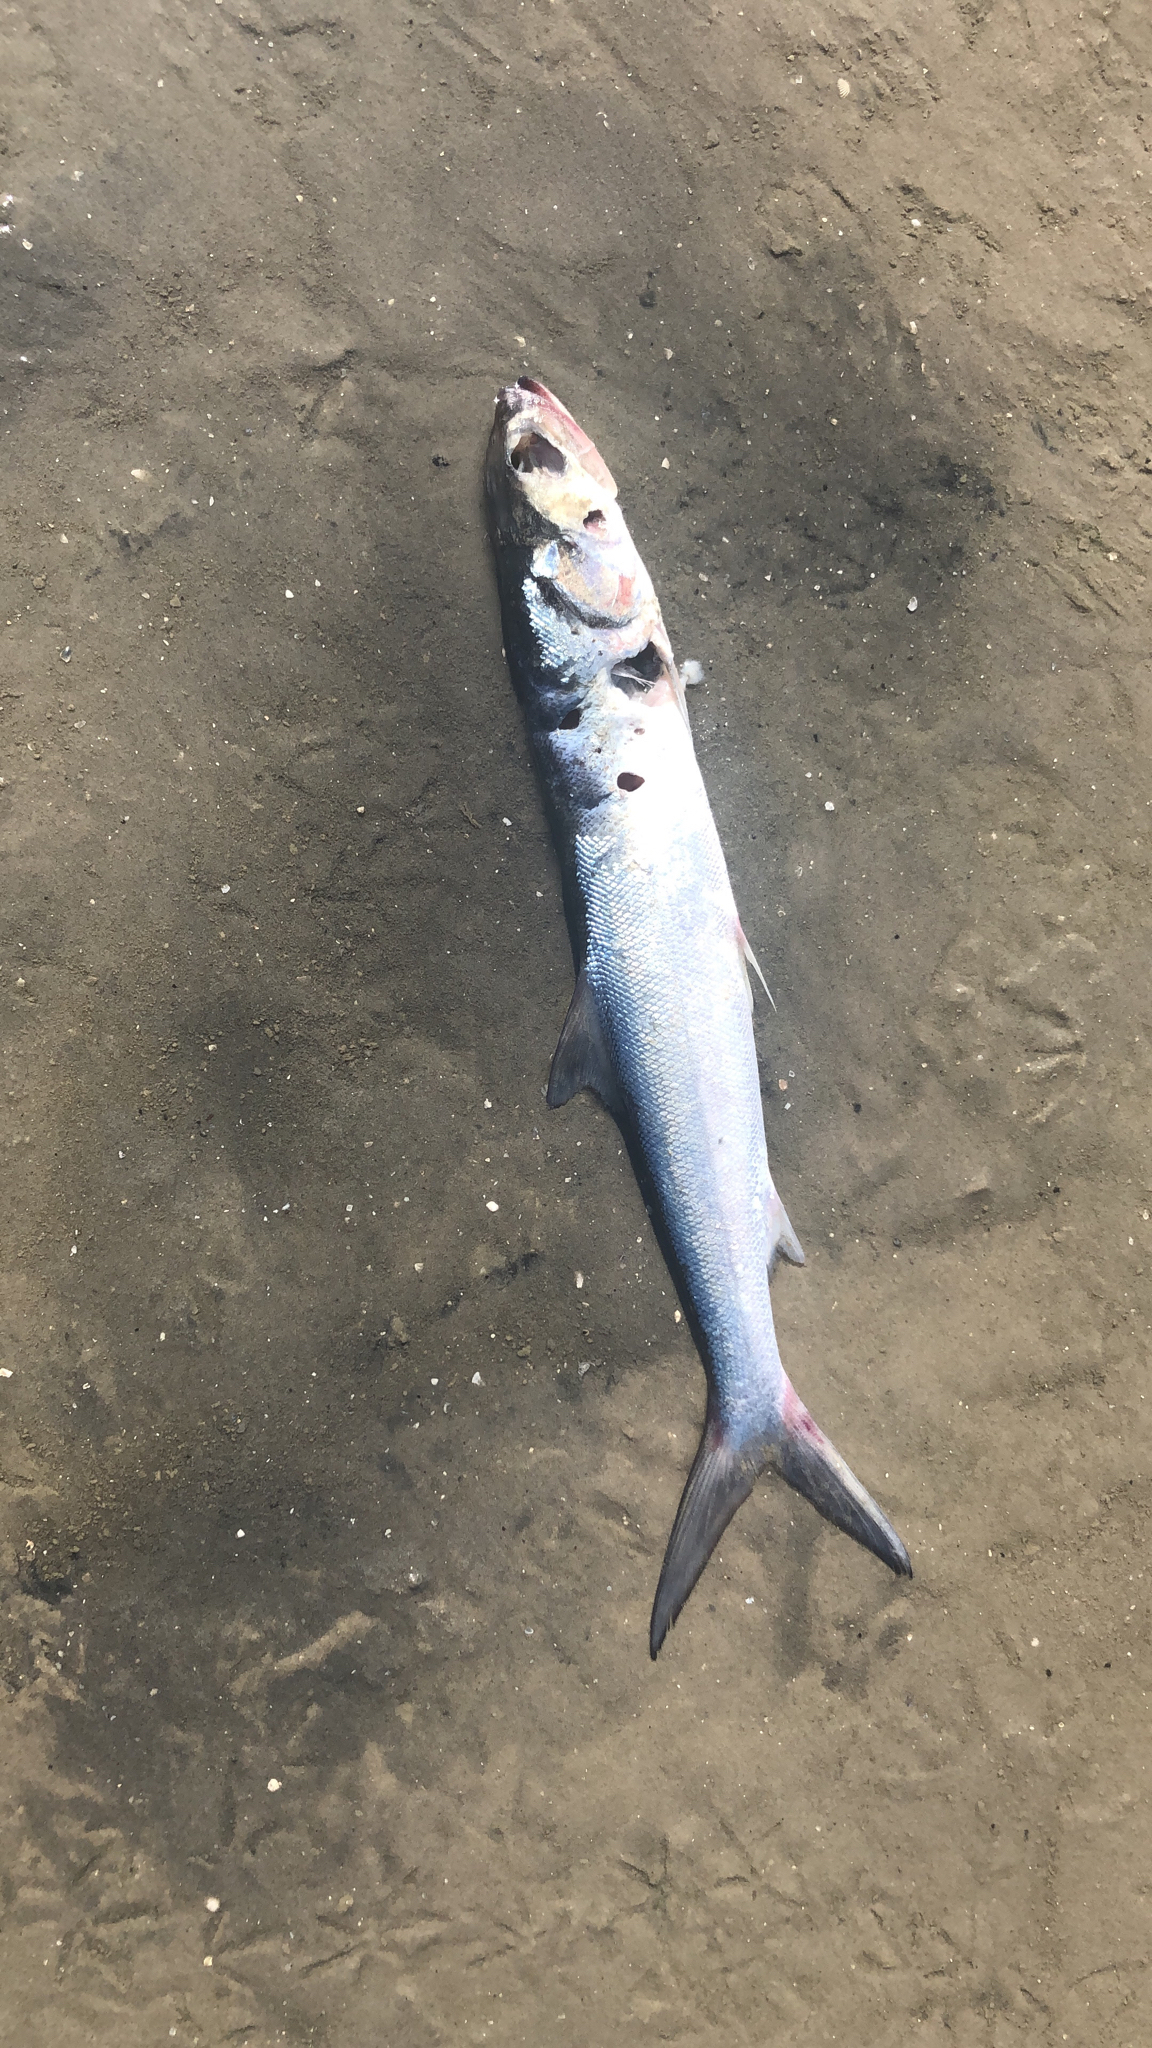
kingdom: Animalia
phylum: Chordata
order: Elopiformes
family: Elopidae
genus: Elops
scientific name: Elops saurus
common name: Ladyfish
